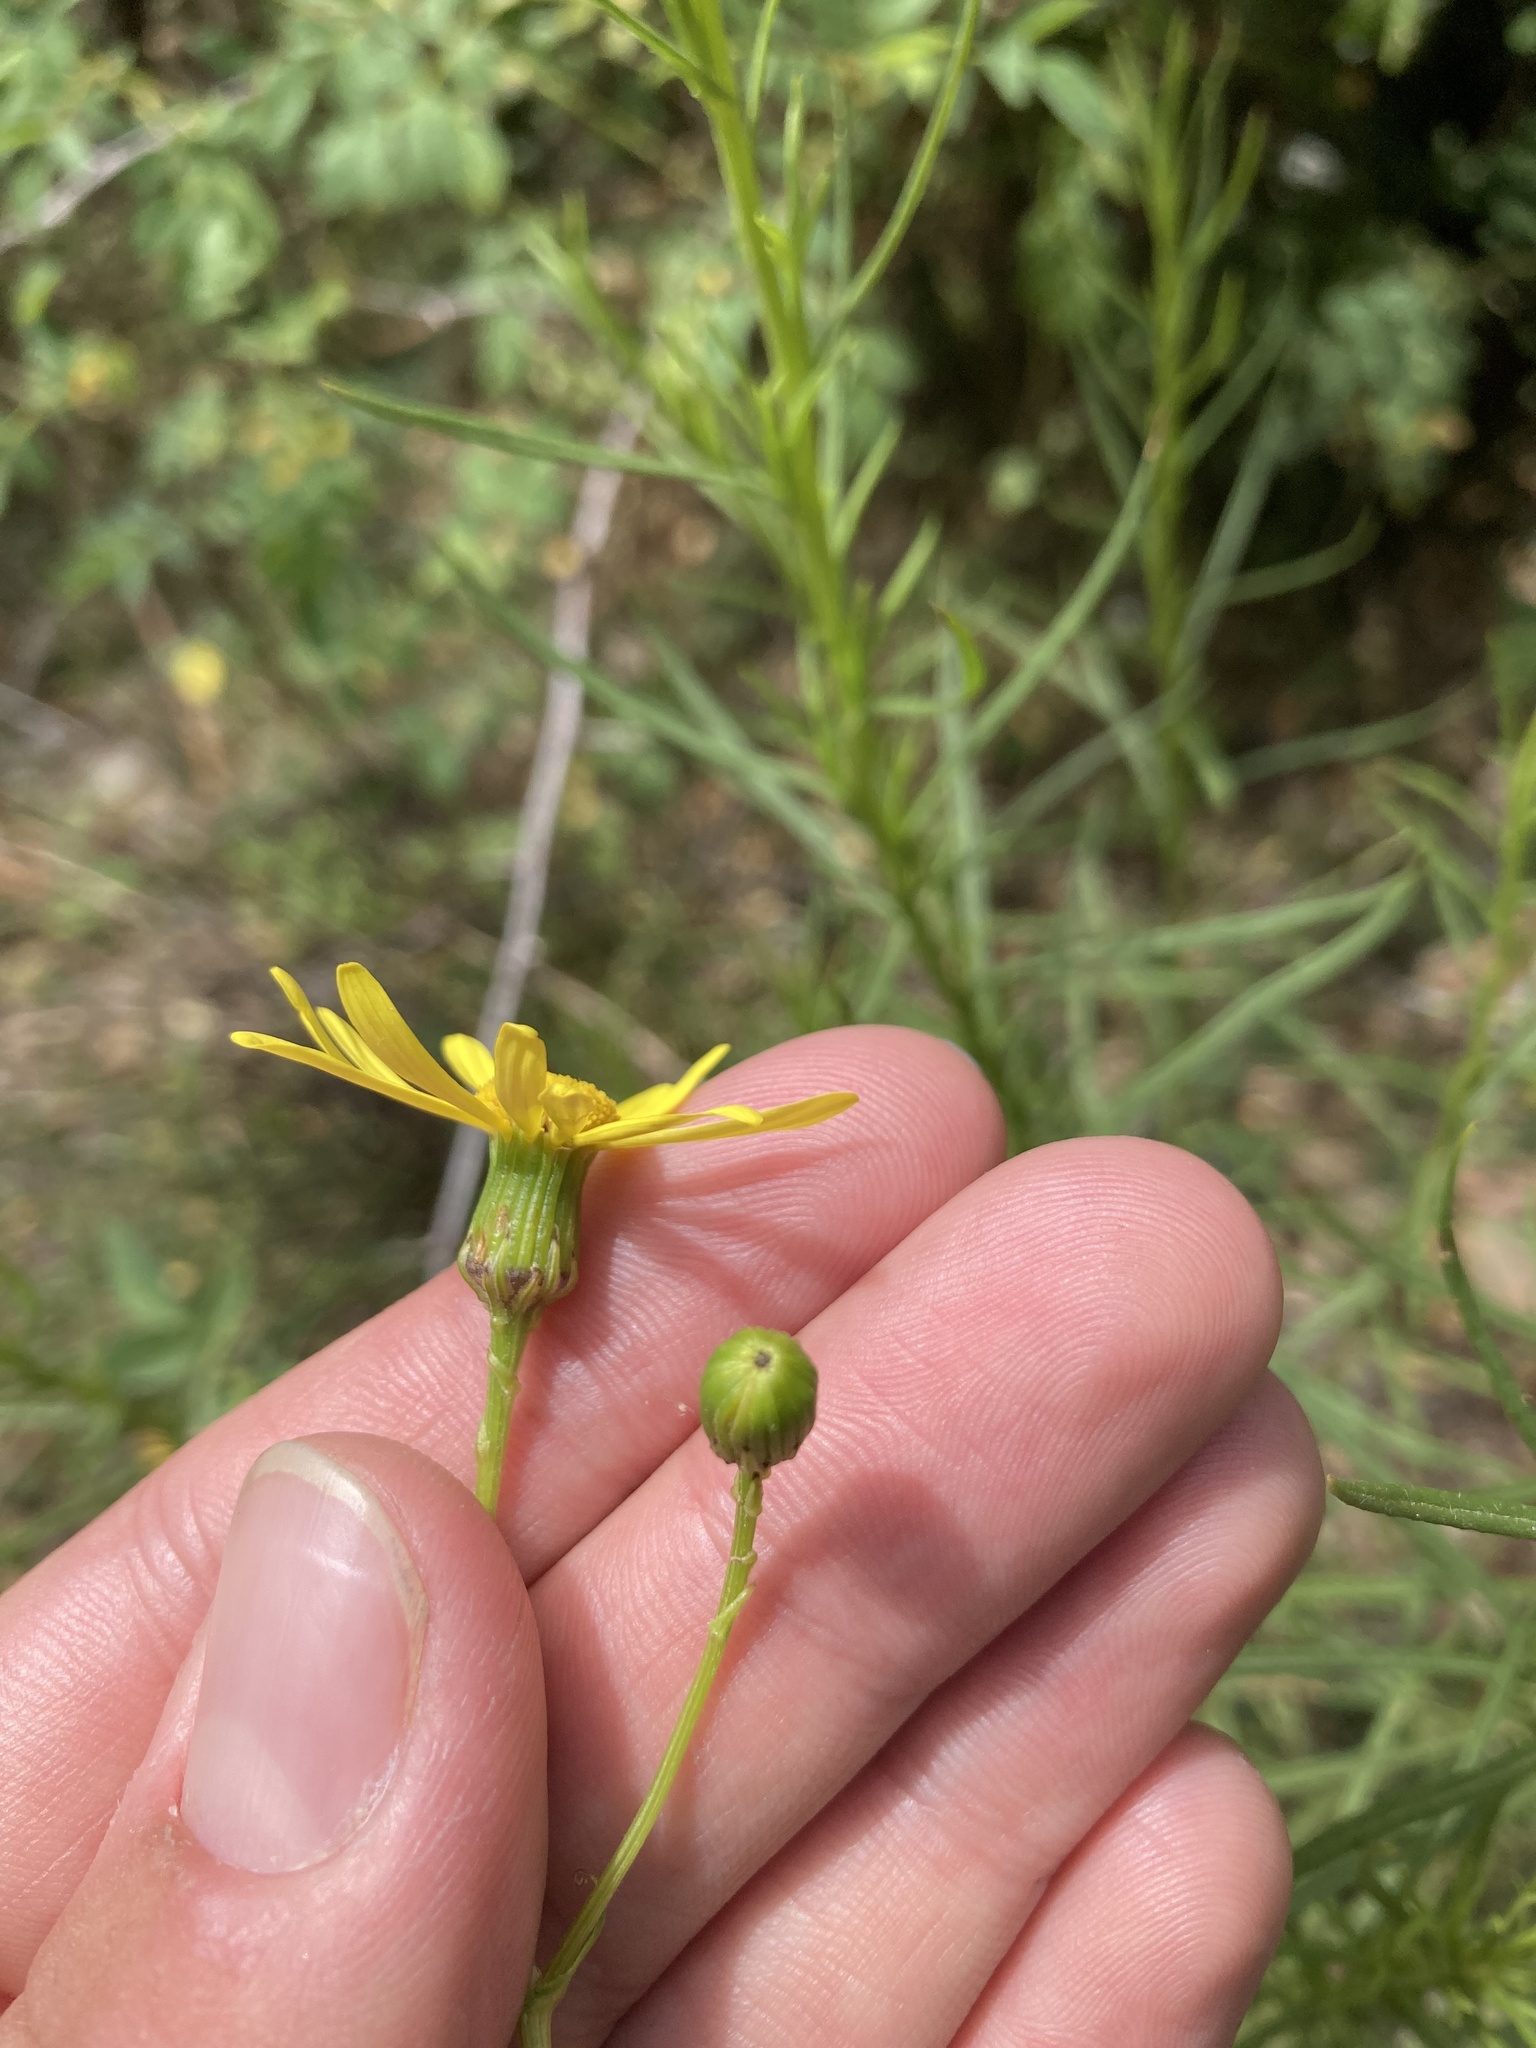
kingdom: Plantae
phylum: Tracheophyta
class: Magnoliopsida
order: Asterales
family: Asteraceae
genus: Senecio
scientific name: Senecio inaequidens
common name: Narrow-leaved ragwort
